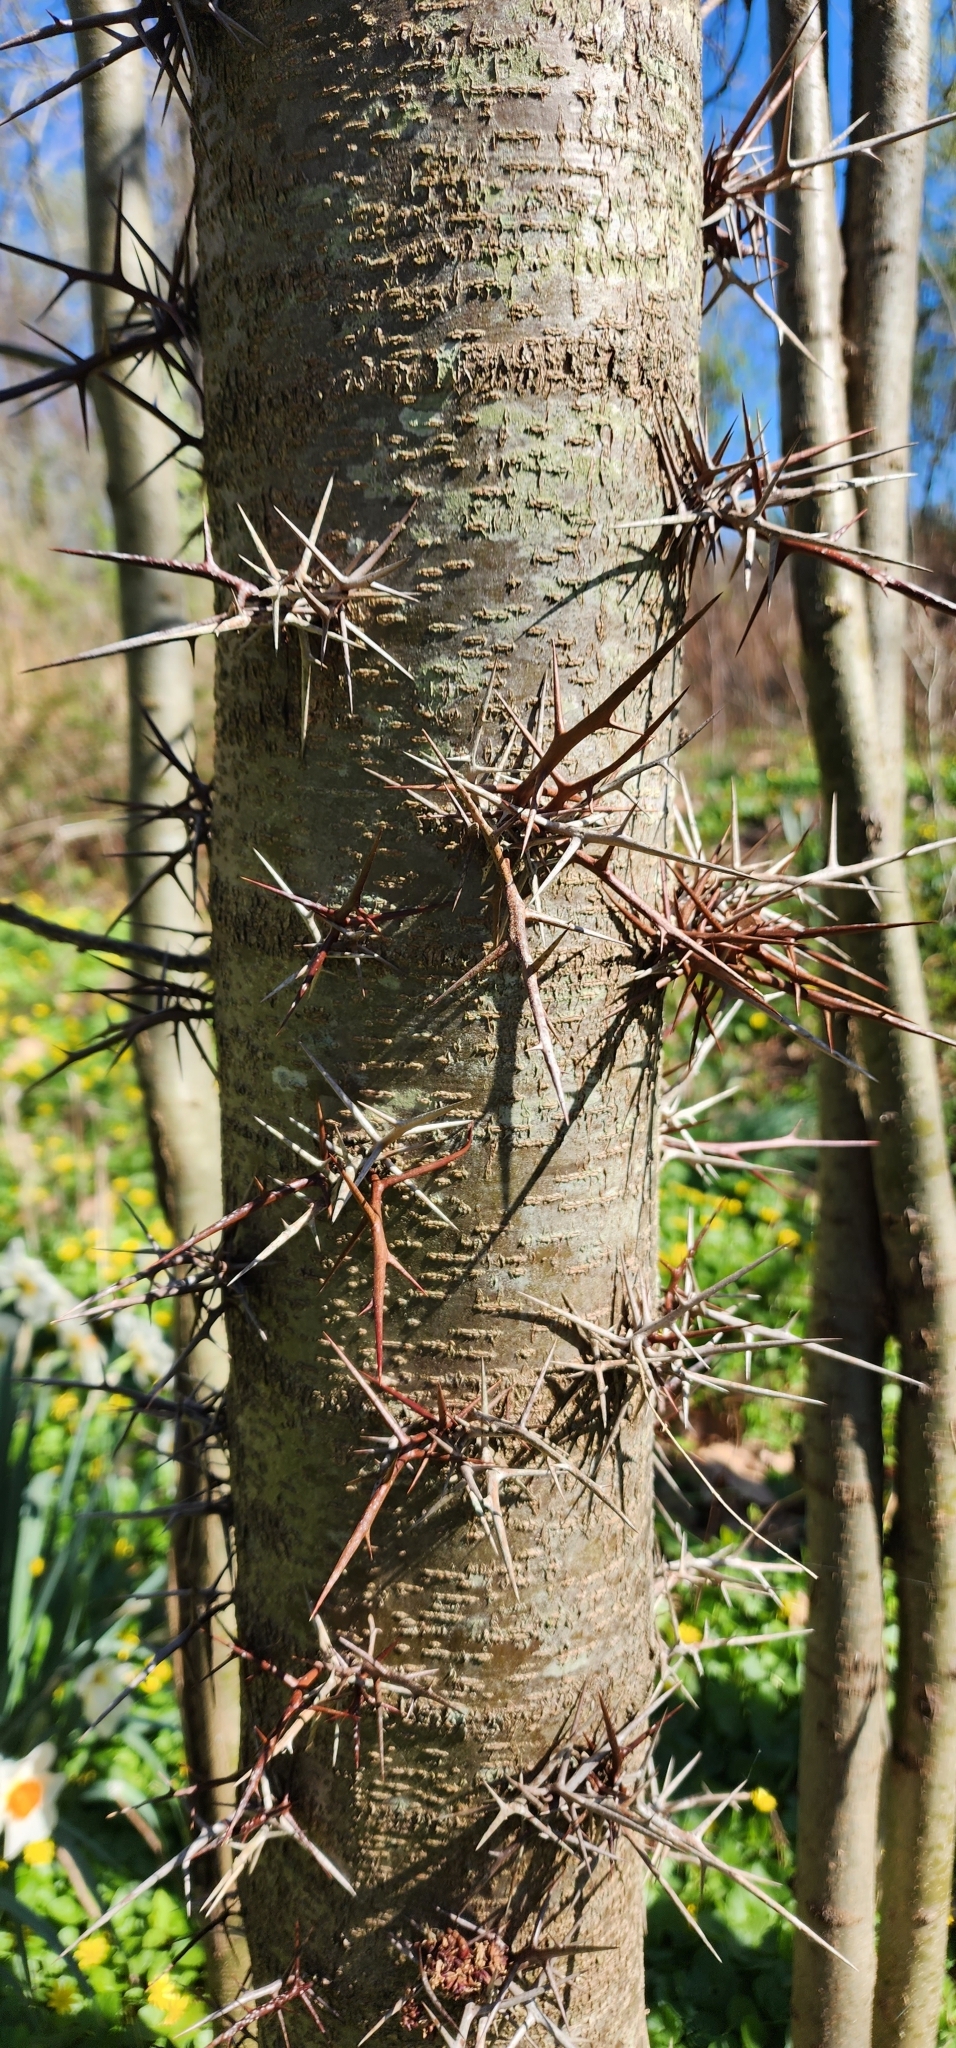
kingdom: Plantae
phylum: Tracheophyta
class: Magnoliopsida
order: Fabales
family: Fabaceae
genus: Gleditsia
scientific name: Gleditsia triacanthos
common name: Common honeylocust
